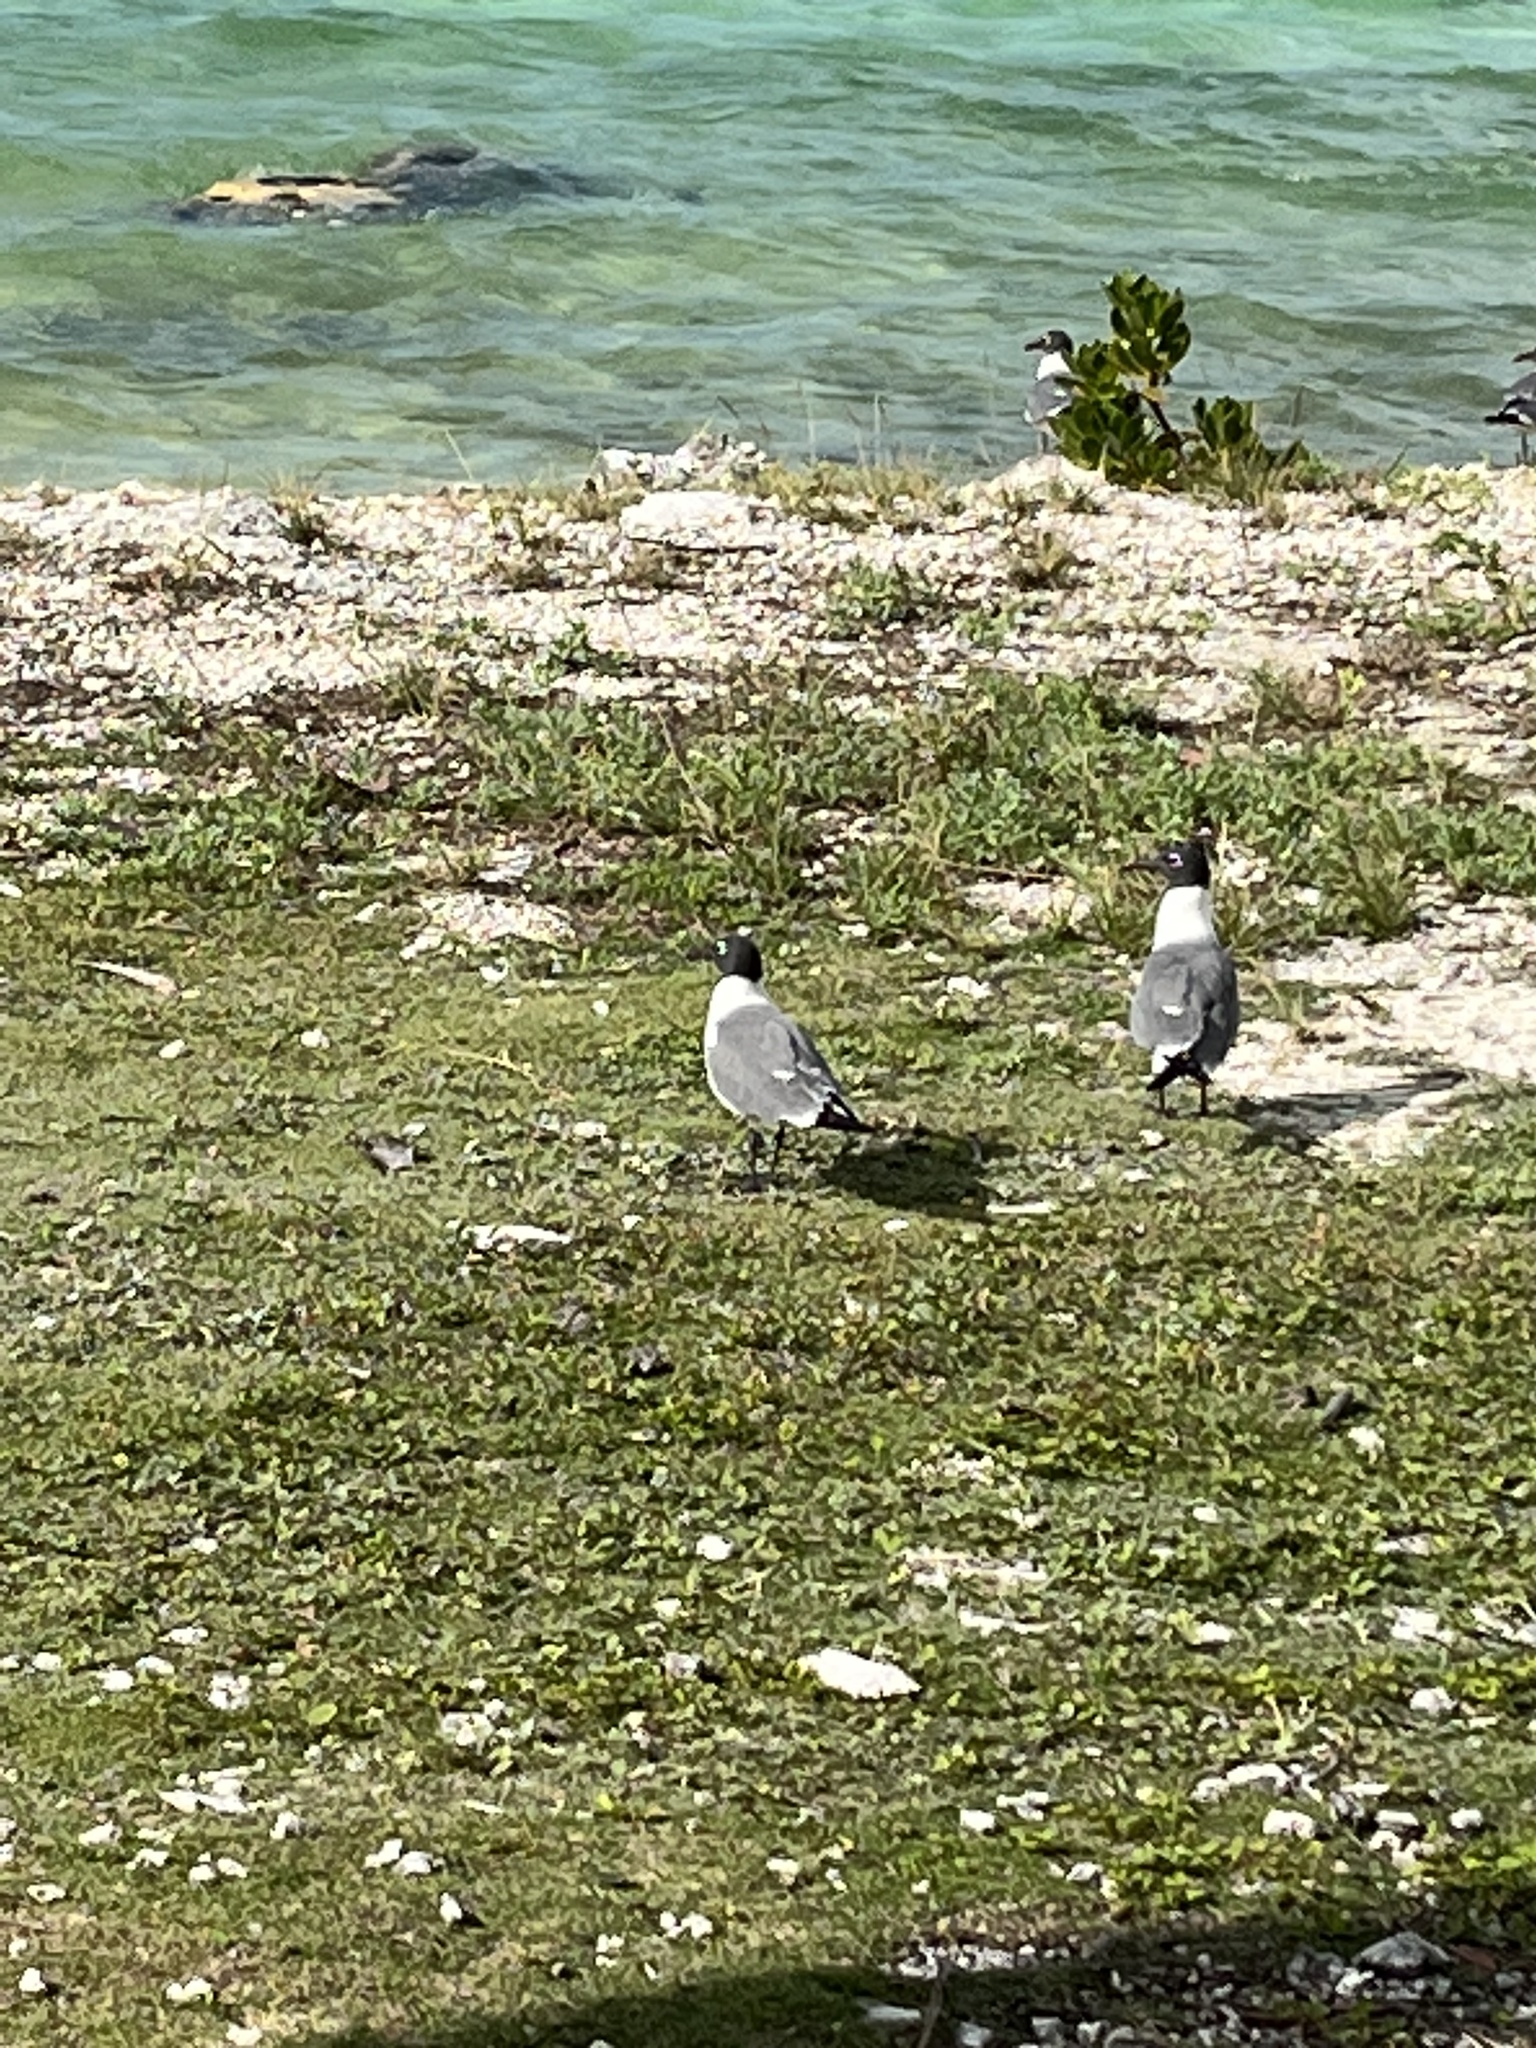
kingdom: Animalia
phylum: Chordata
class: Aves
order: Charadriiformes
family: Laridae
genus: Leucophaeus
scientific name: Leucophaeus atricilla
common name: Laughing gull
